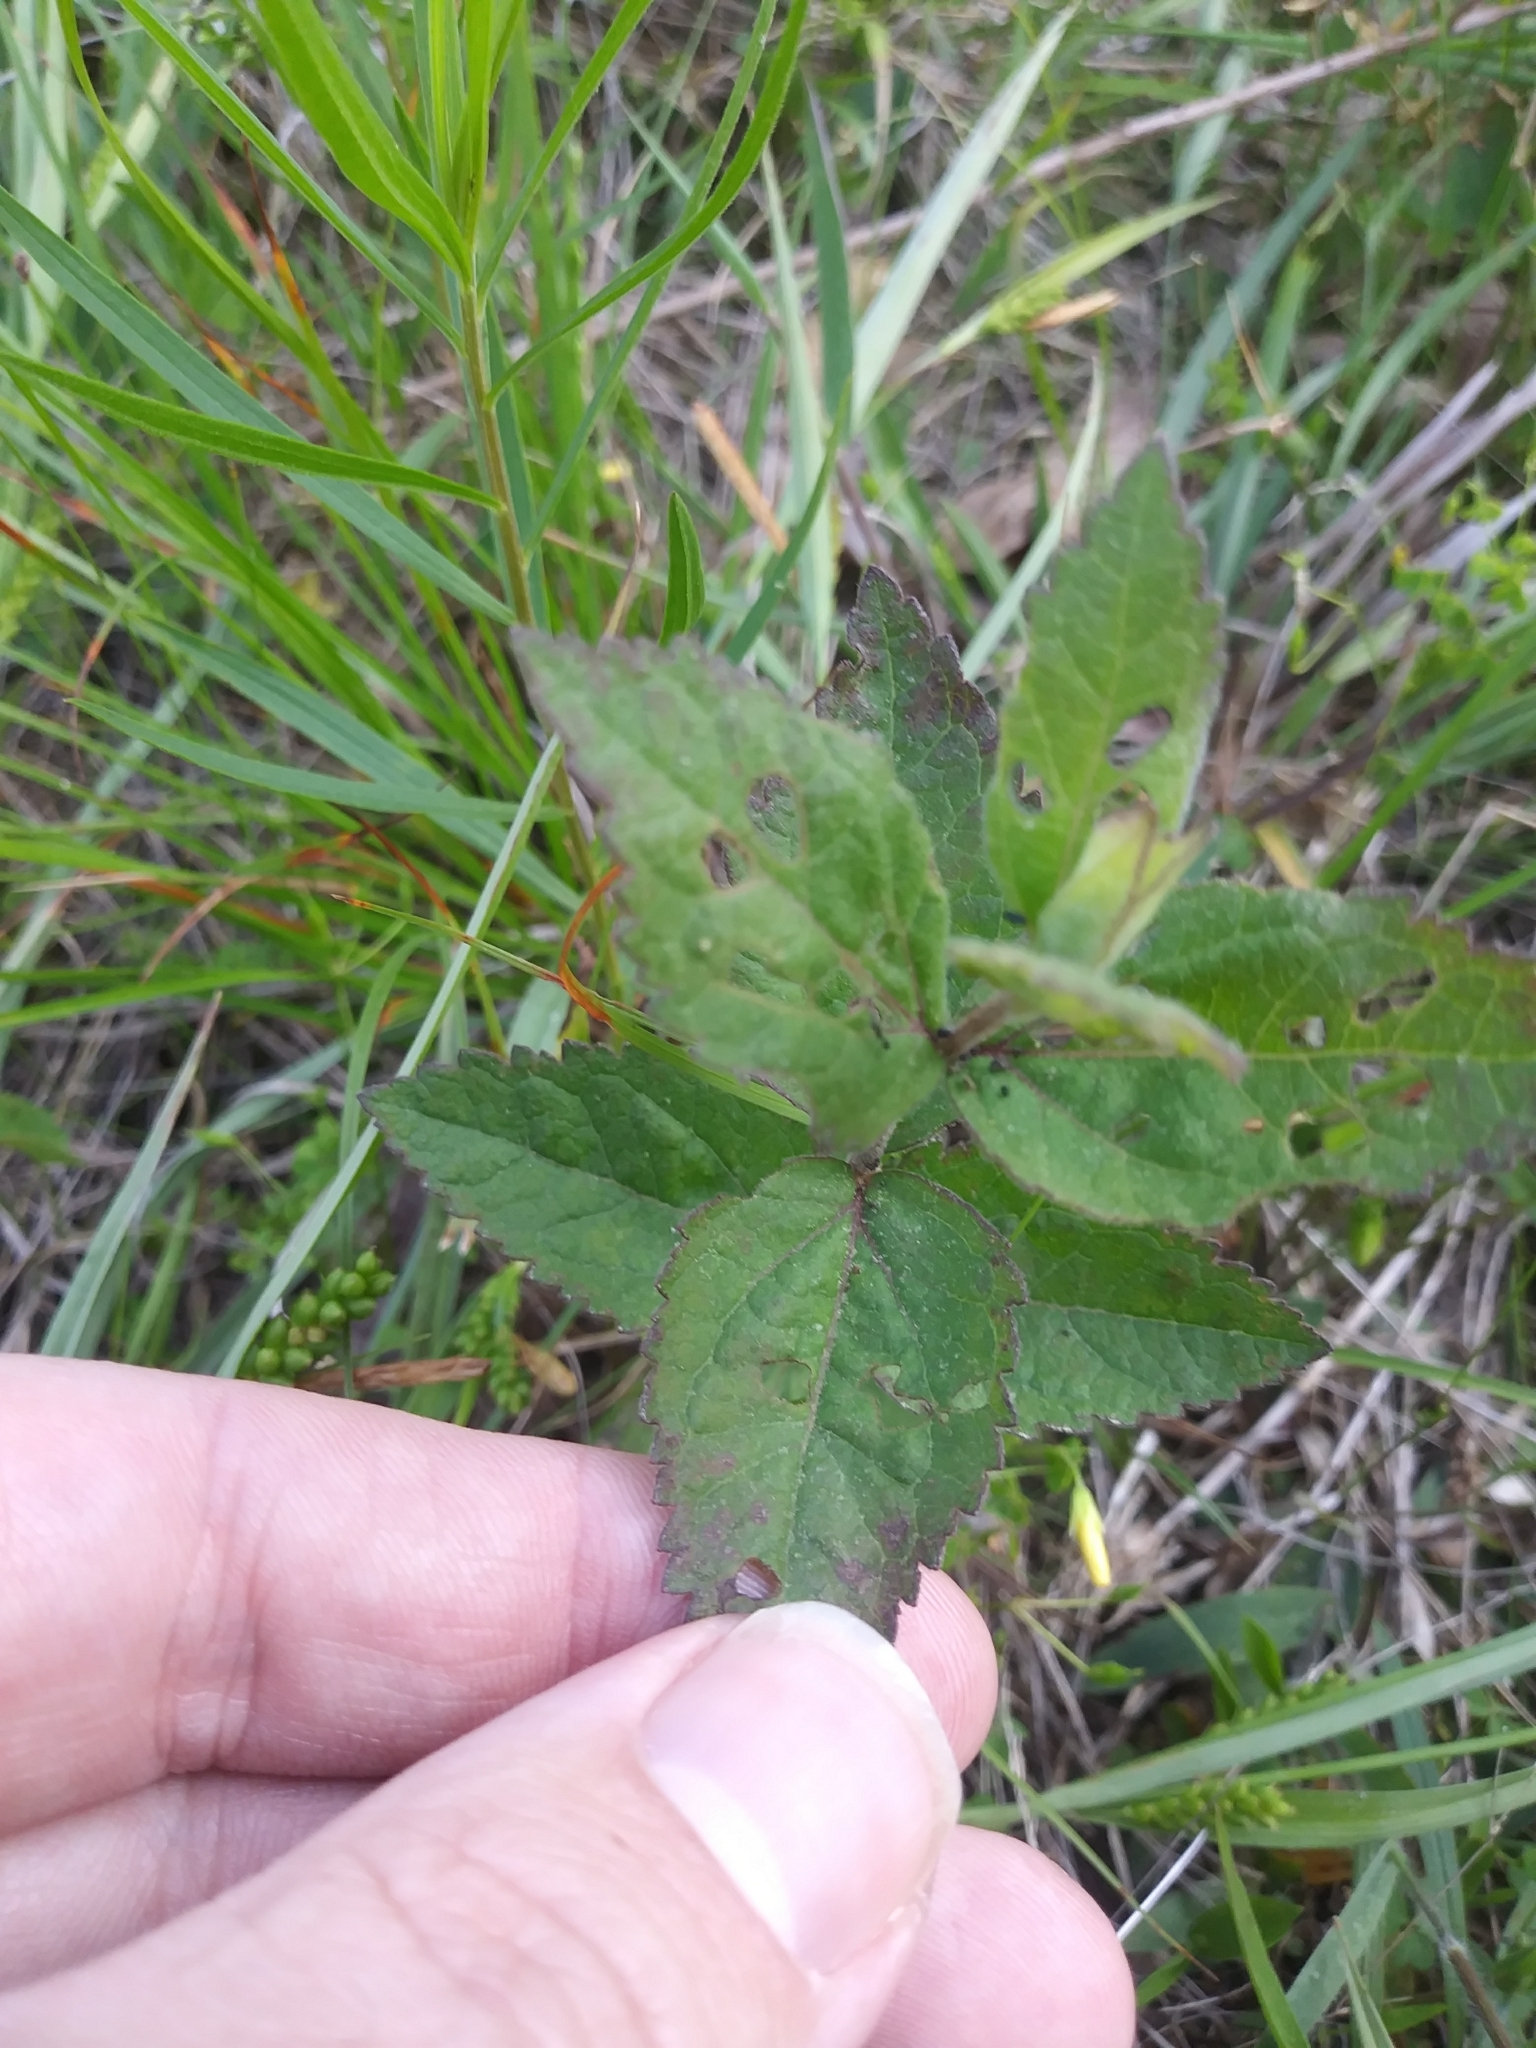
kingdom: Plantae
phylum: Tracheophyta
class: Magnoliopsida
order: Asterales
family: Asteraceae
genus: Eupatorium
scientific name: Eupatorium rotundifolium
